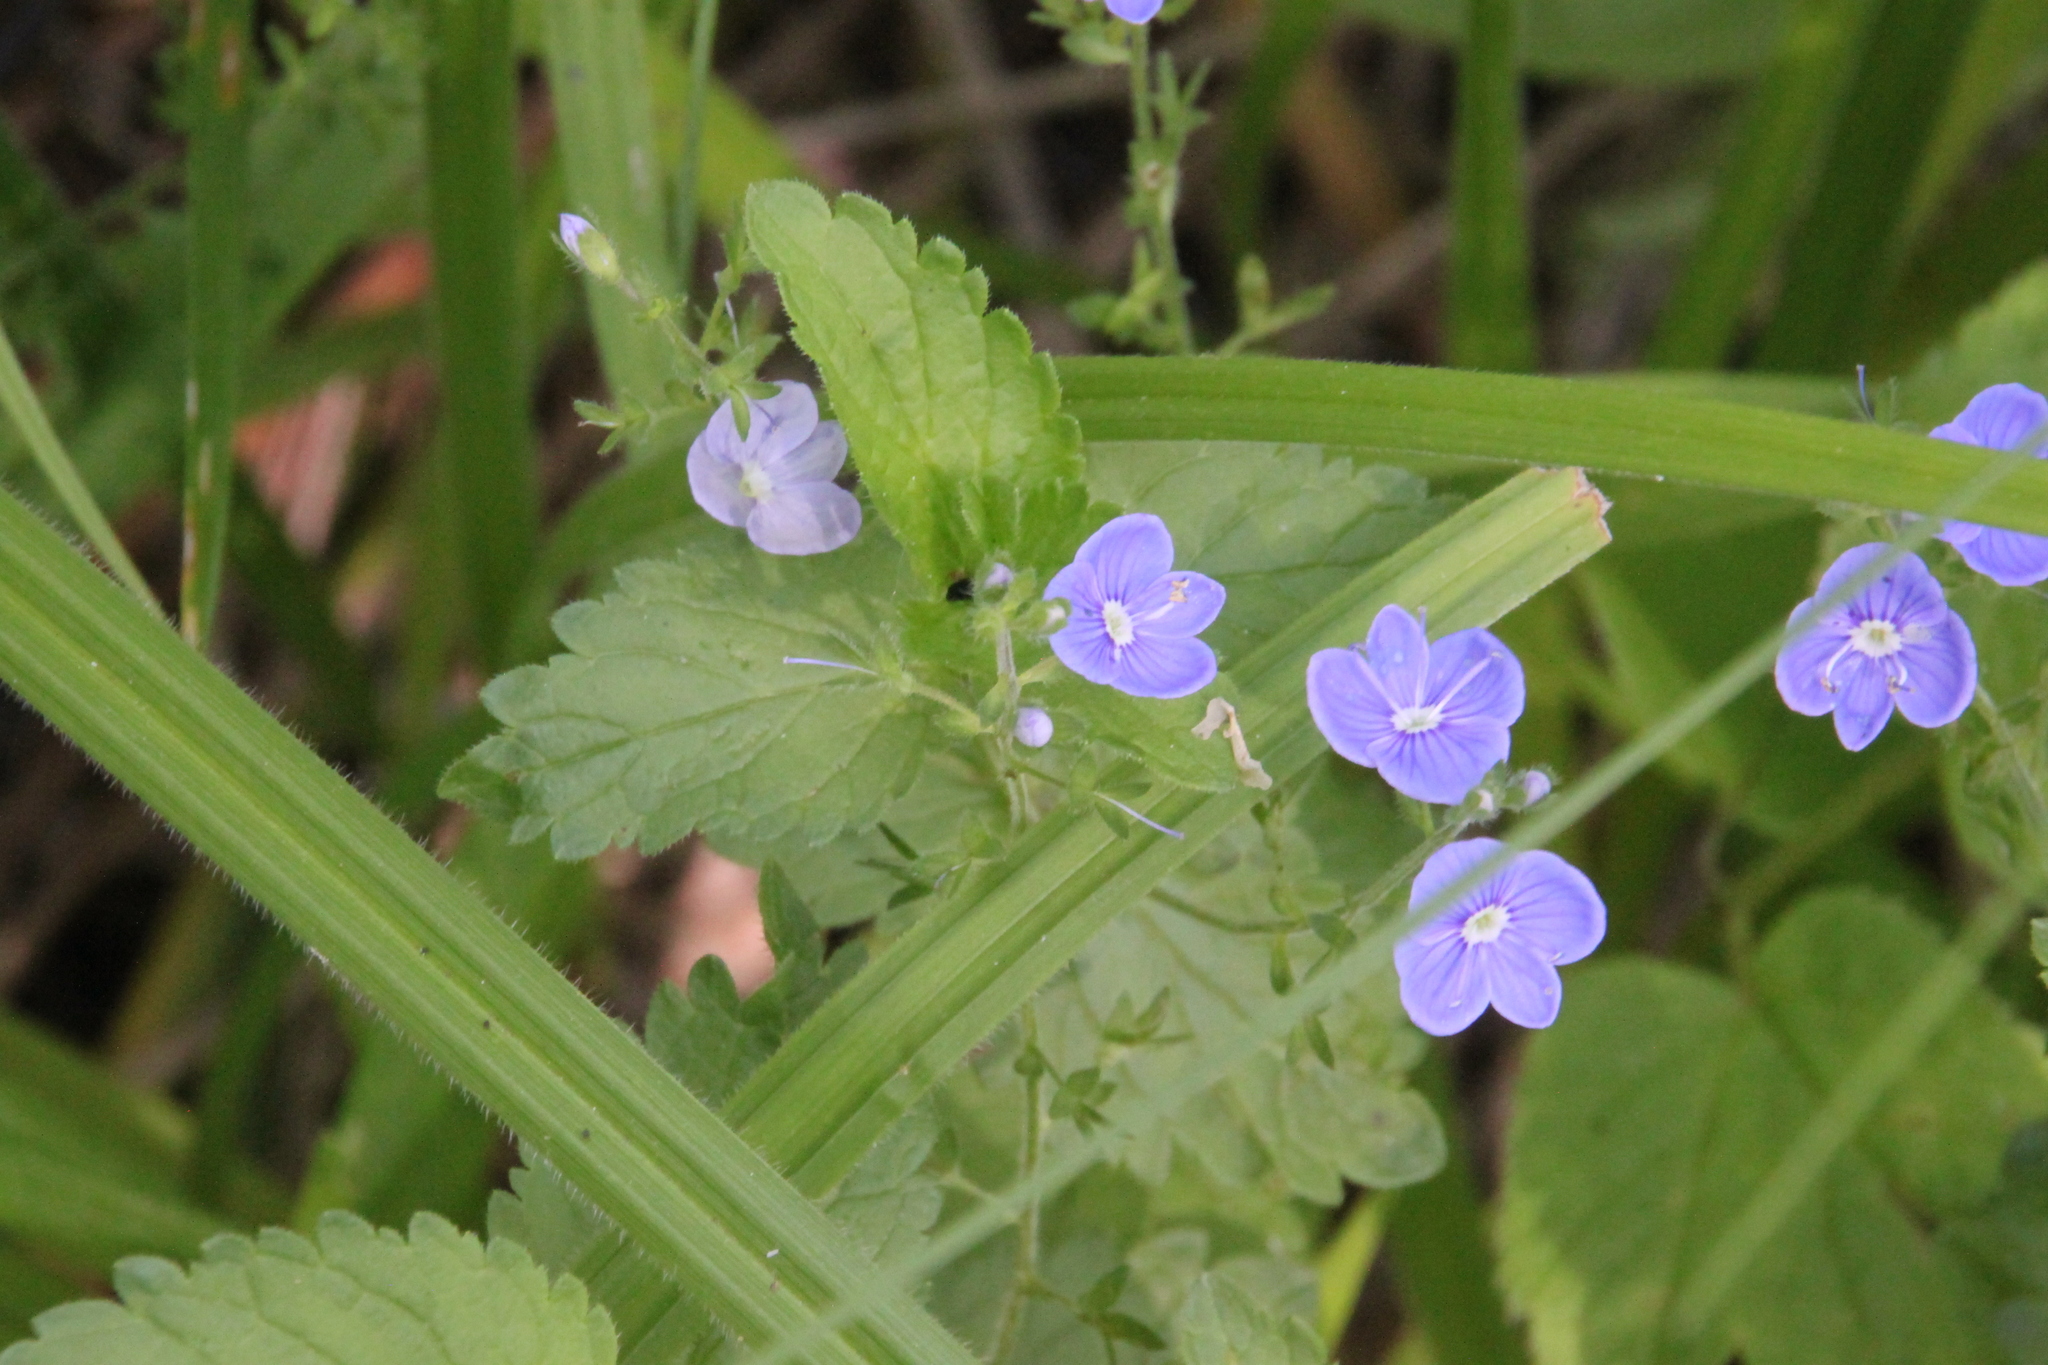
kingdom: Plantae
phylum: Tracheophyta
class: Magnoliopsida
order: Lamiales
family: Plantaginaceae
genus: Veronica
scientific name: Veronica chamaedrys
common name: Germander speedwell
